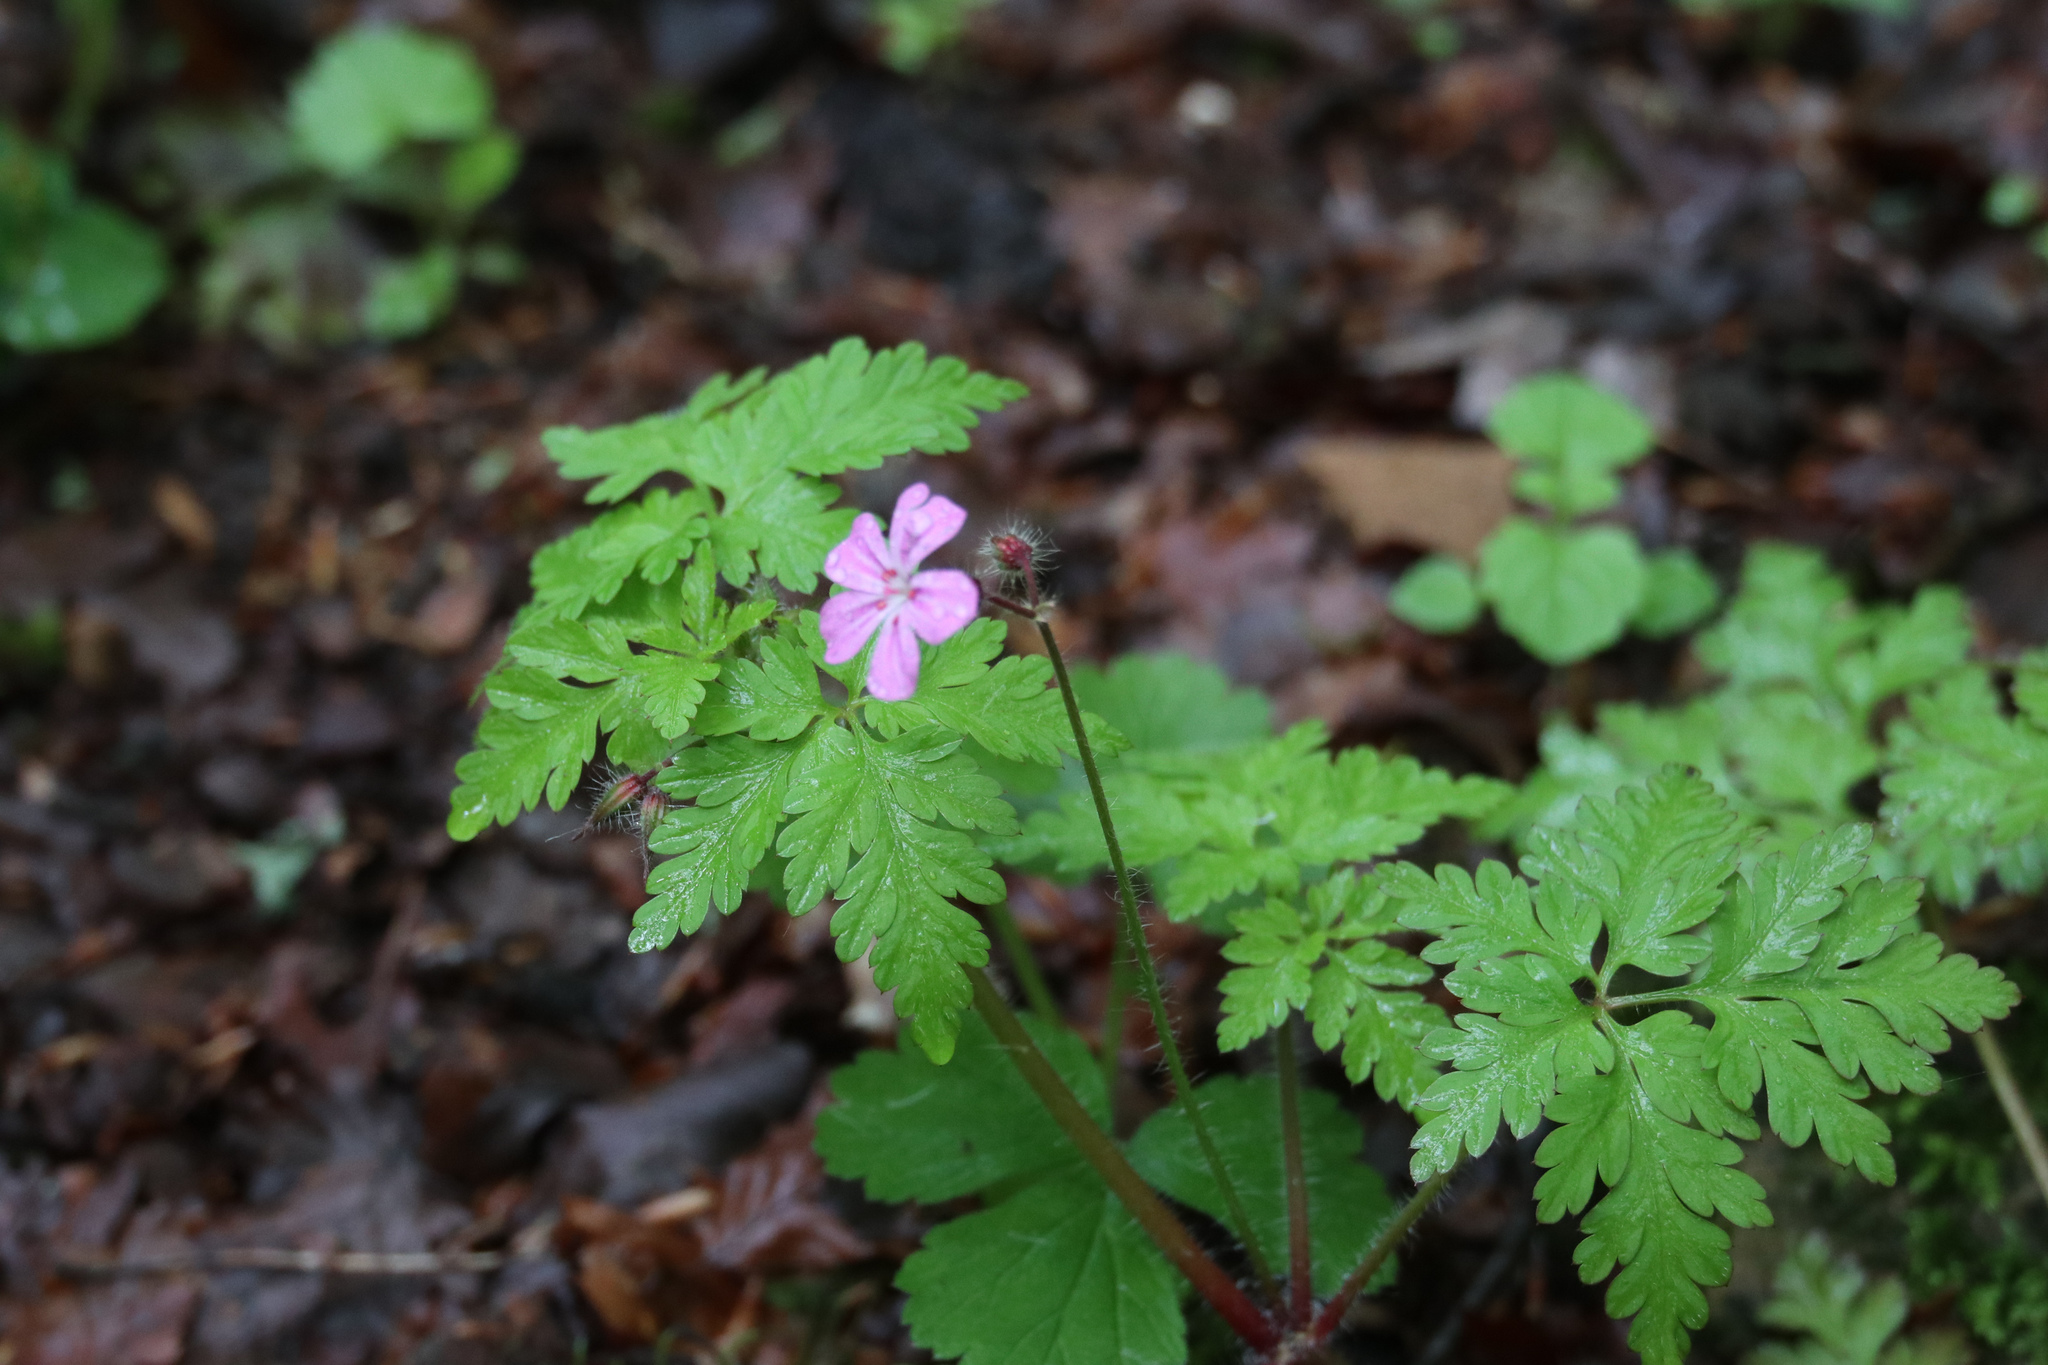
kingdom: Plantae
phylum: Tracheophyta
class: Magnoliopsida
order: Geraniales
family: Geraniaceae
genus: Geranium
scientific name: Geranium robertianum
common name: Herb-robert
